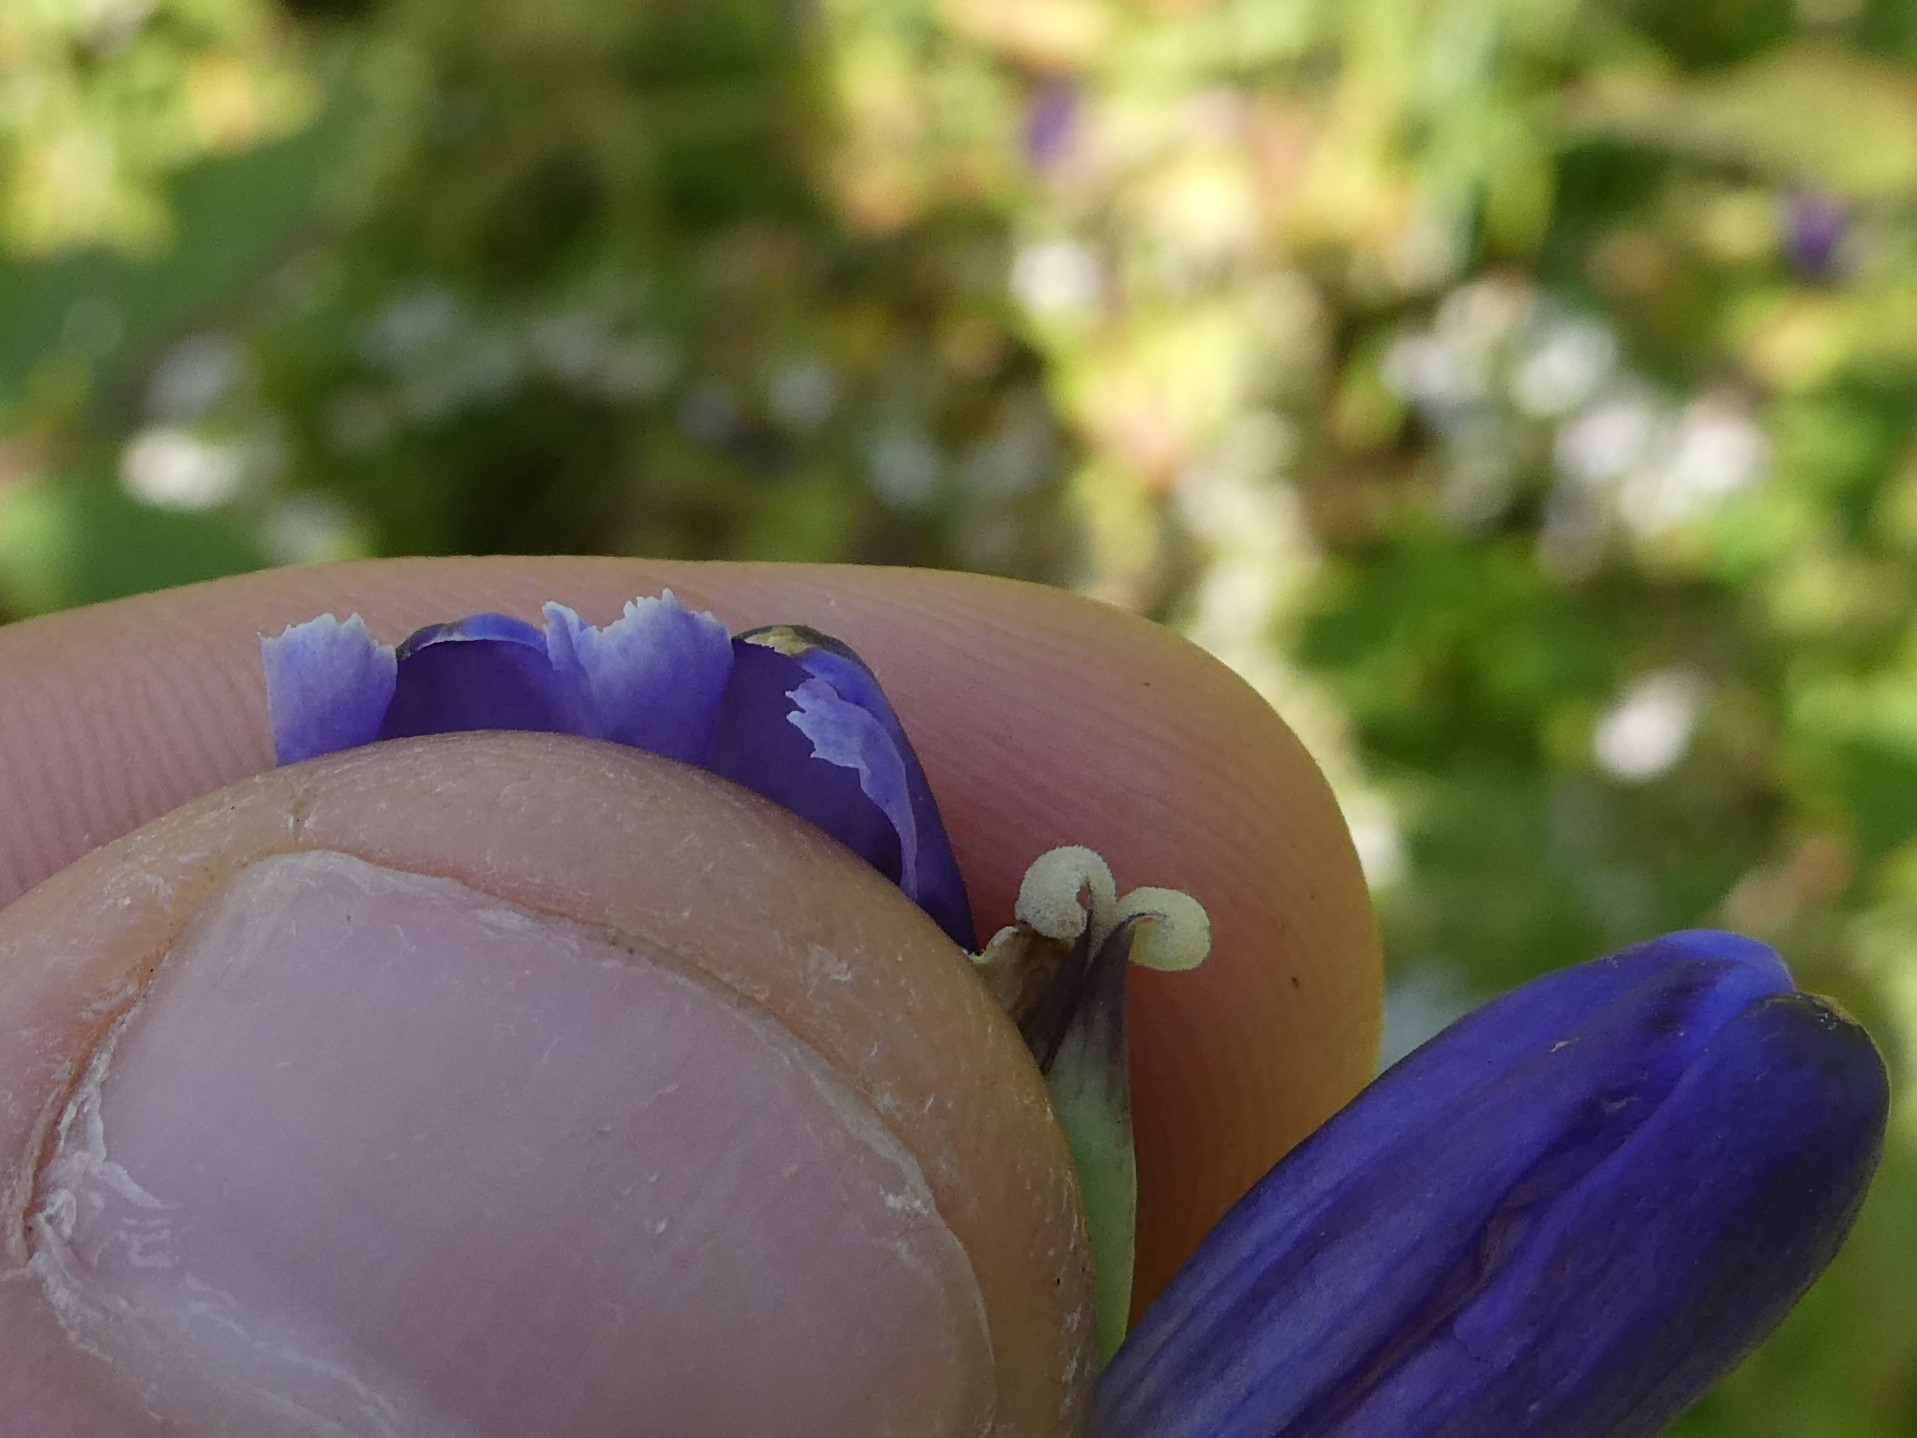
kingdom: Plantae
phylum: Tracheophyta
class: Magnoliopsida
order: Gentianales
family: Gentianaceae
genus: Gentiana
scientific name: Gentiana clausa
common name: Blind gentian
